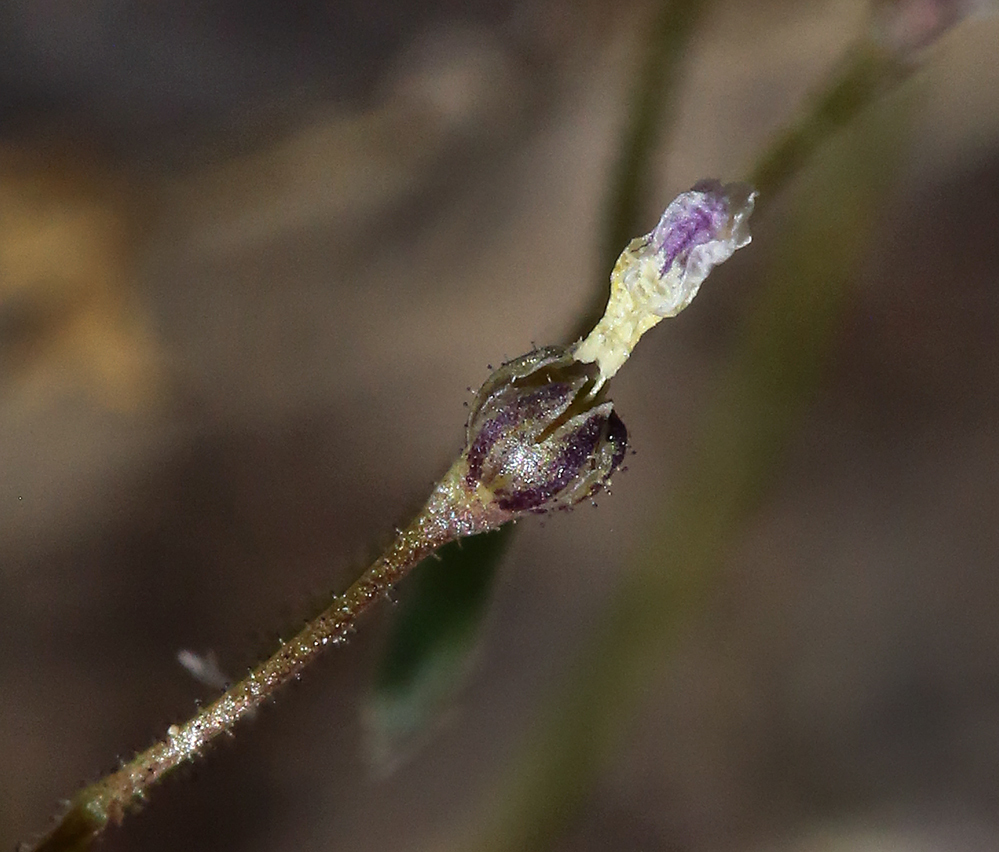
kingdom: Plantae
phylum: Tracheophyta
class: Magnoliopsida
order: Ericales
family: Polemoniaceae
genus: Lathrocasis
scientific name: Lathrocasis tenerrima
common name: Delicate gilia
